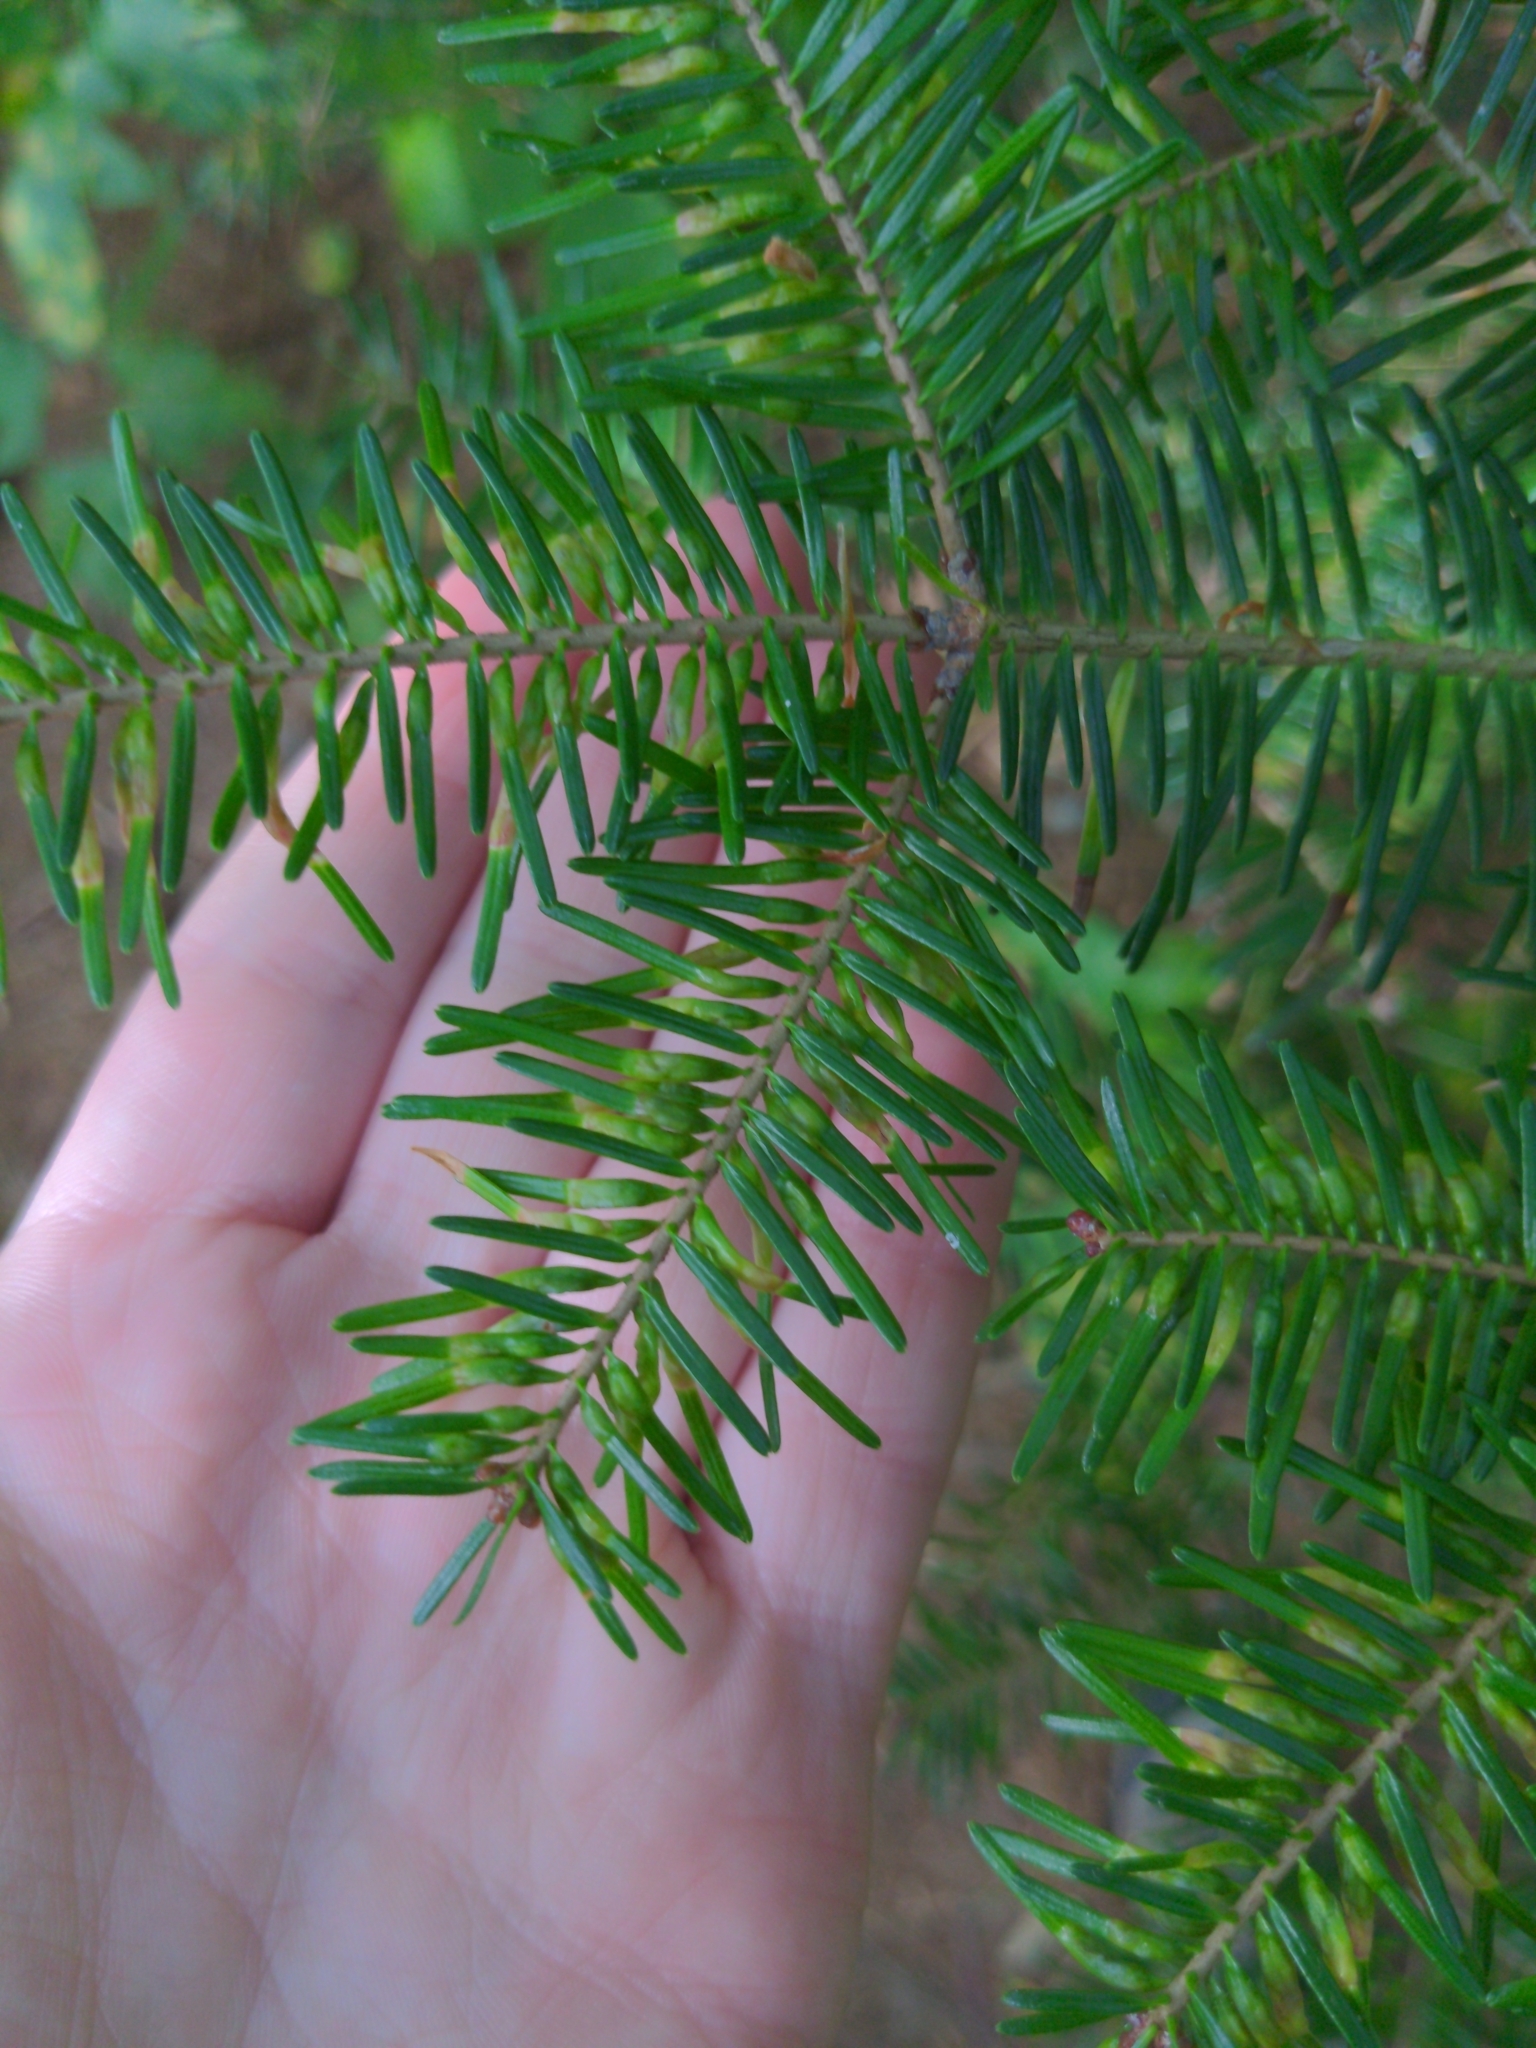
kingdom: Animalia
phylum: Arthropoda
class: Insecta
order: Diptera
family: Cecidomyiidae
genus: Paradiplosis
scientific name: Paradiplosis tumifex
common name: Gall midge
